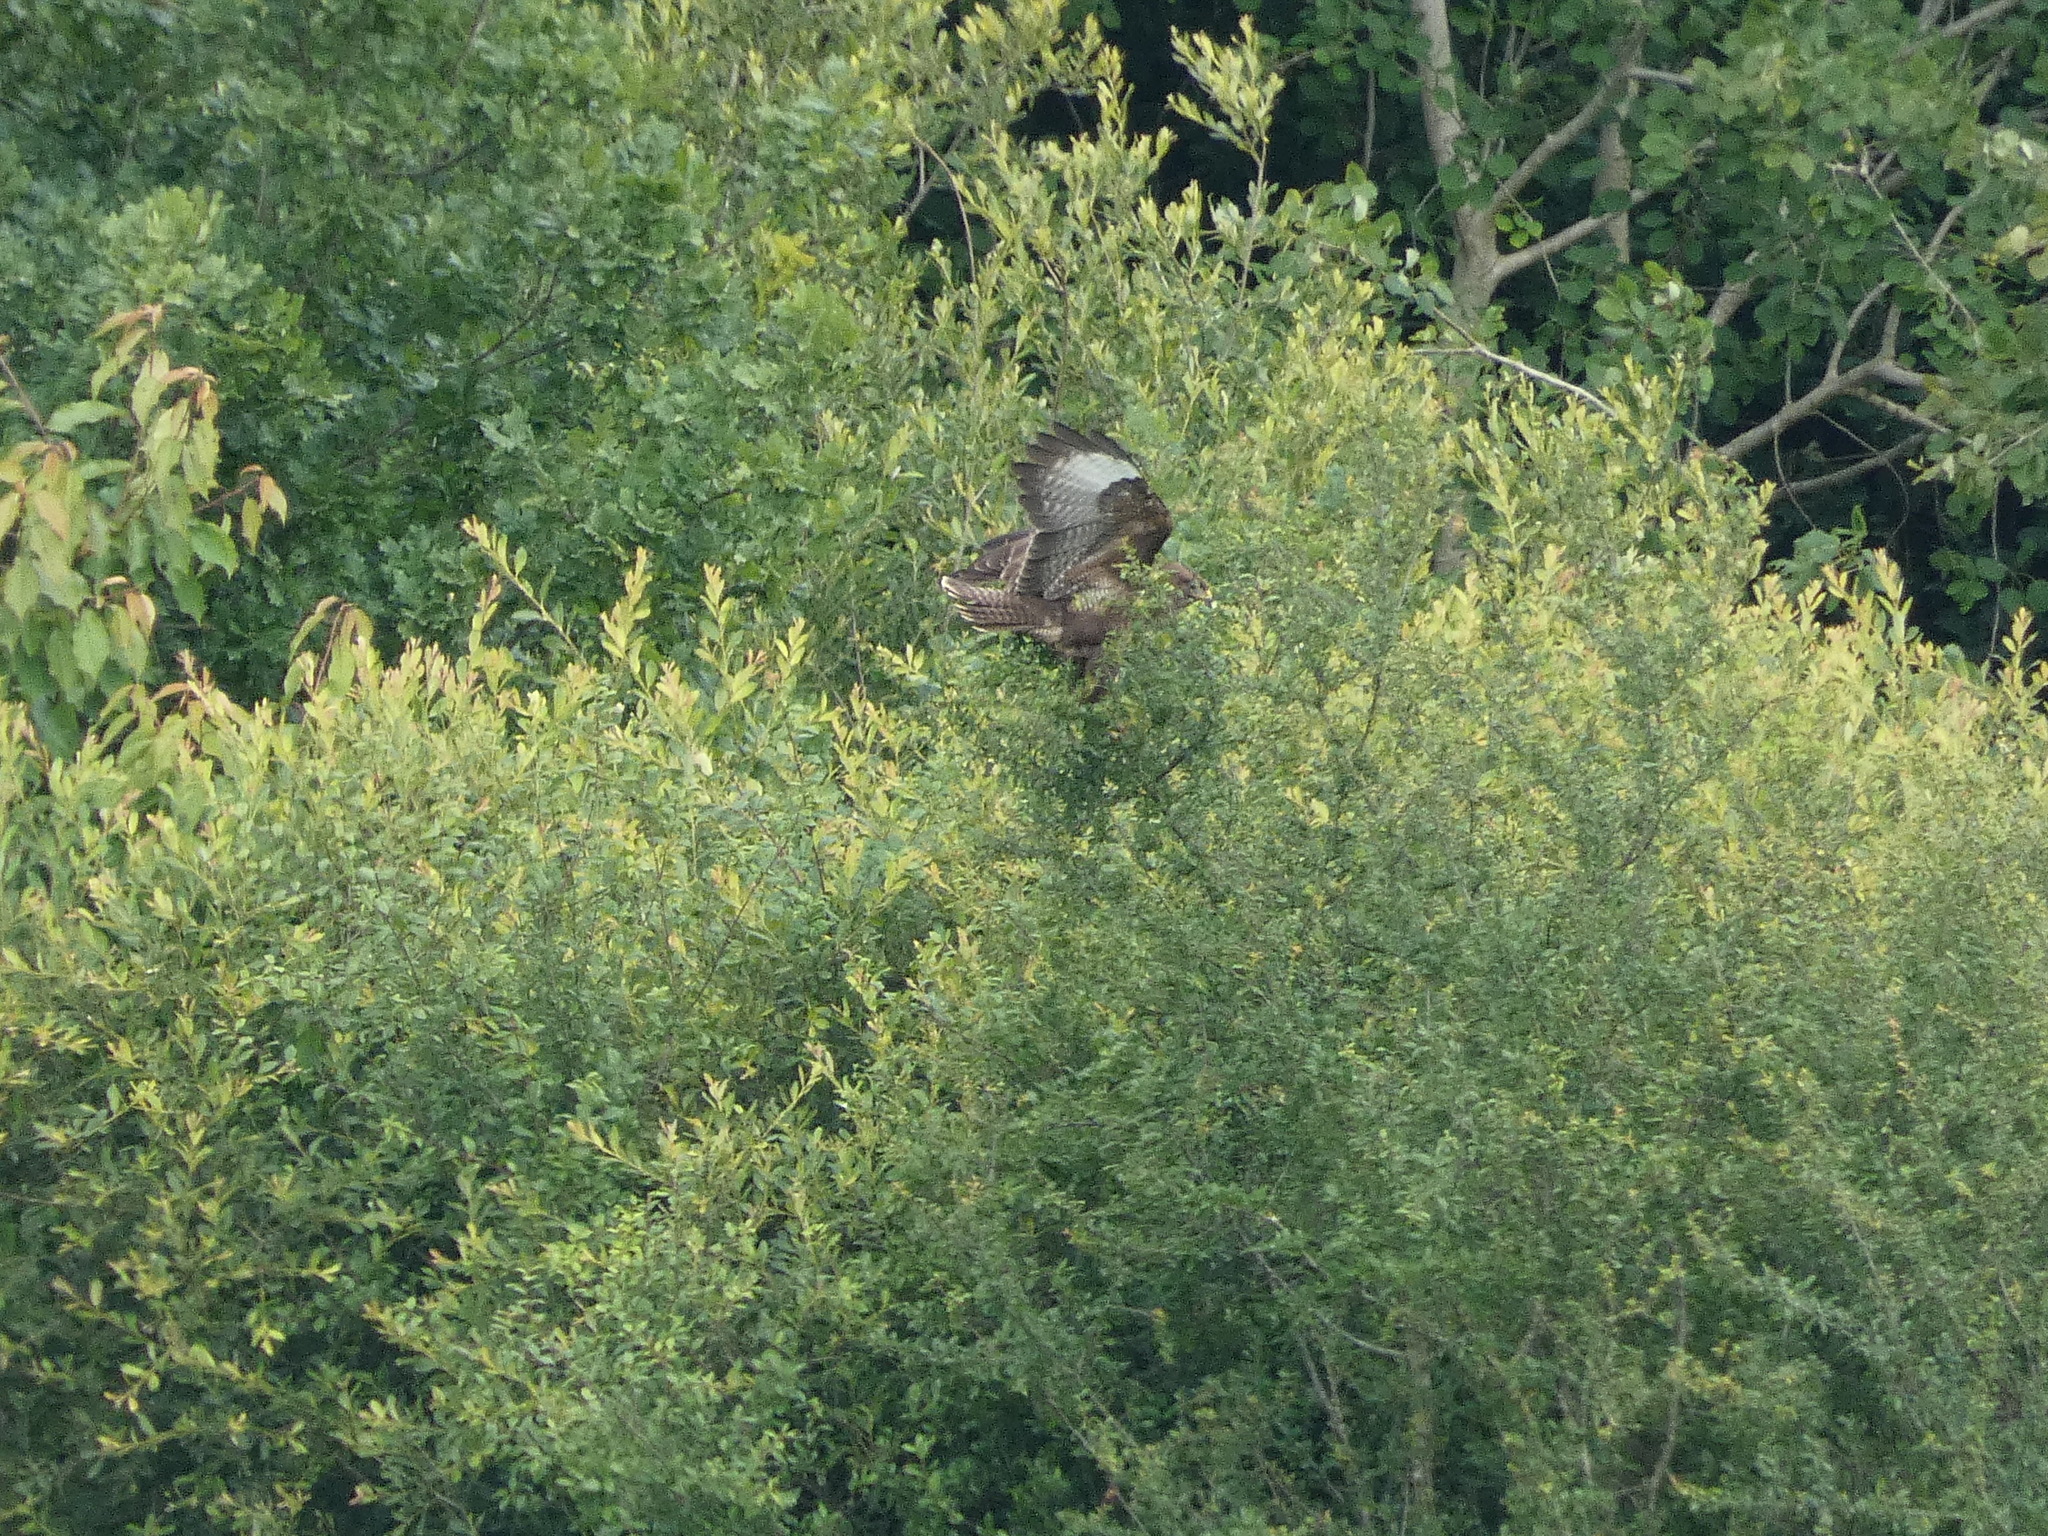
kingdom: Animalia
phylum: Chordata
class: Aves
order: Accipitriformes
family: Accipitridae
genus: Buteo
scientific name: Buteo buteo
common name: Common buzzard
